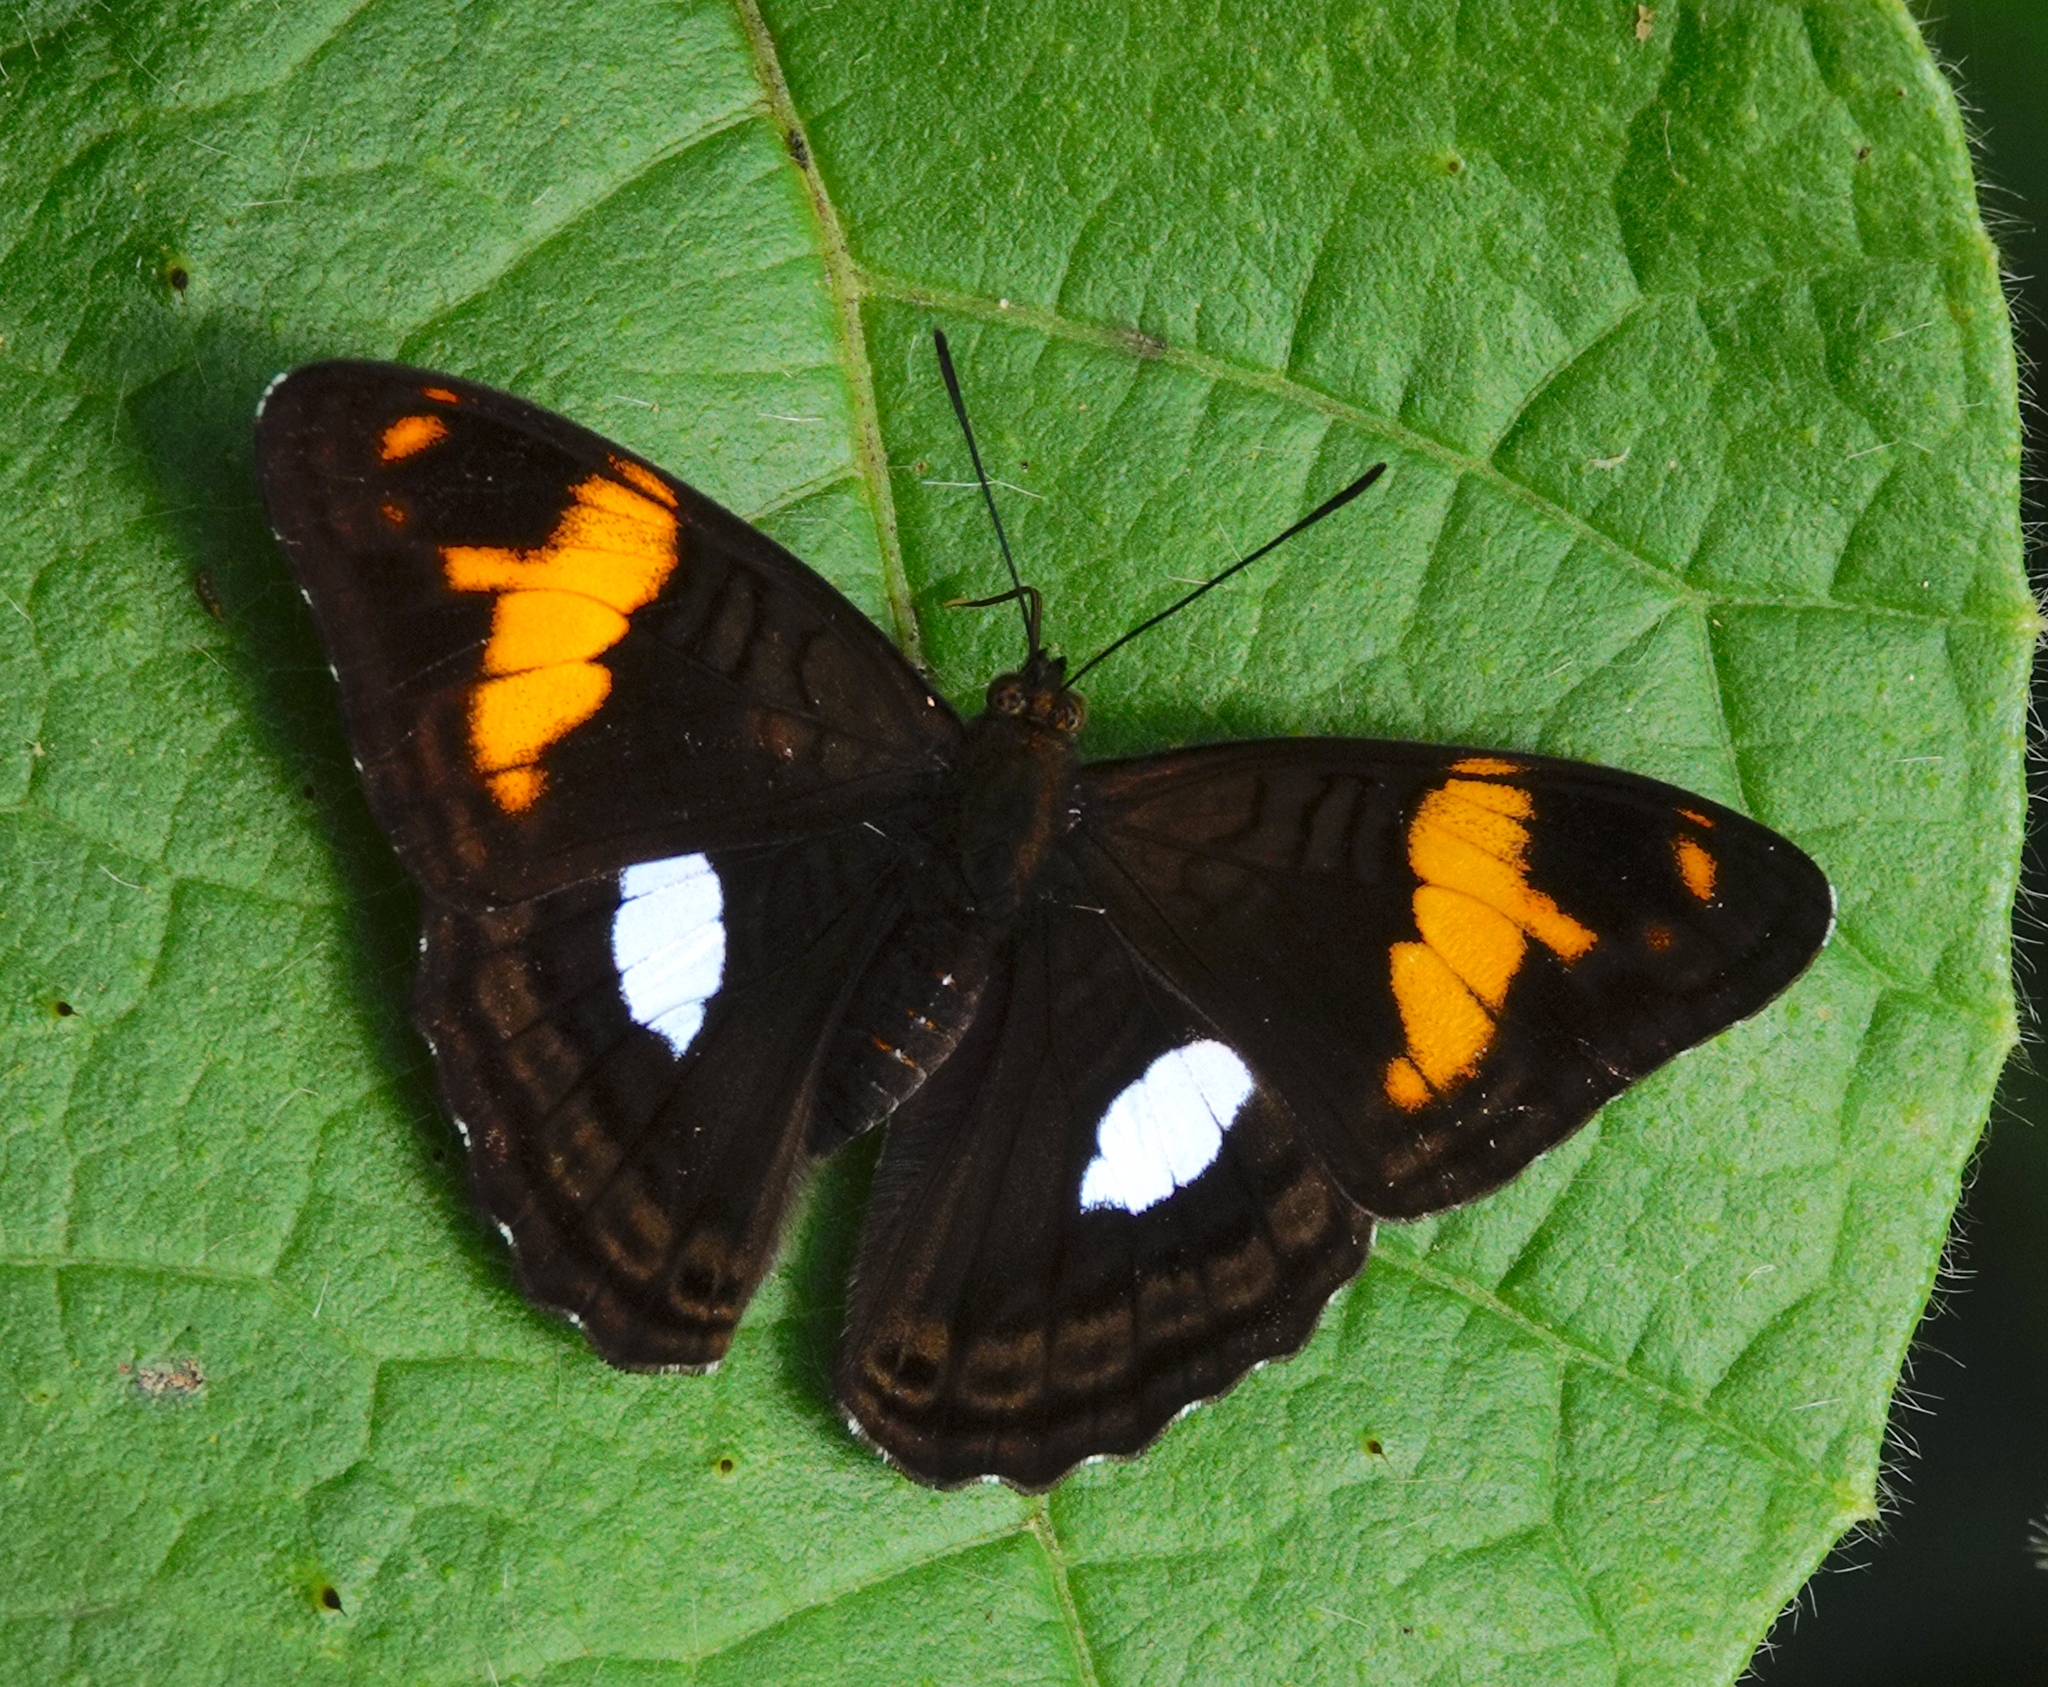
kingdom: Animalia
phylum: Arthropoda
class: Insecta
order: Lepidoptera
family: Nymphalidae
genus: Limenitis
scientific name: Limenitis justina
